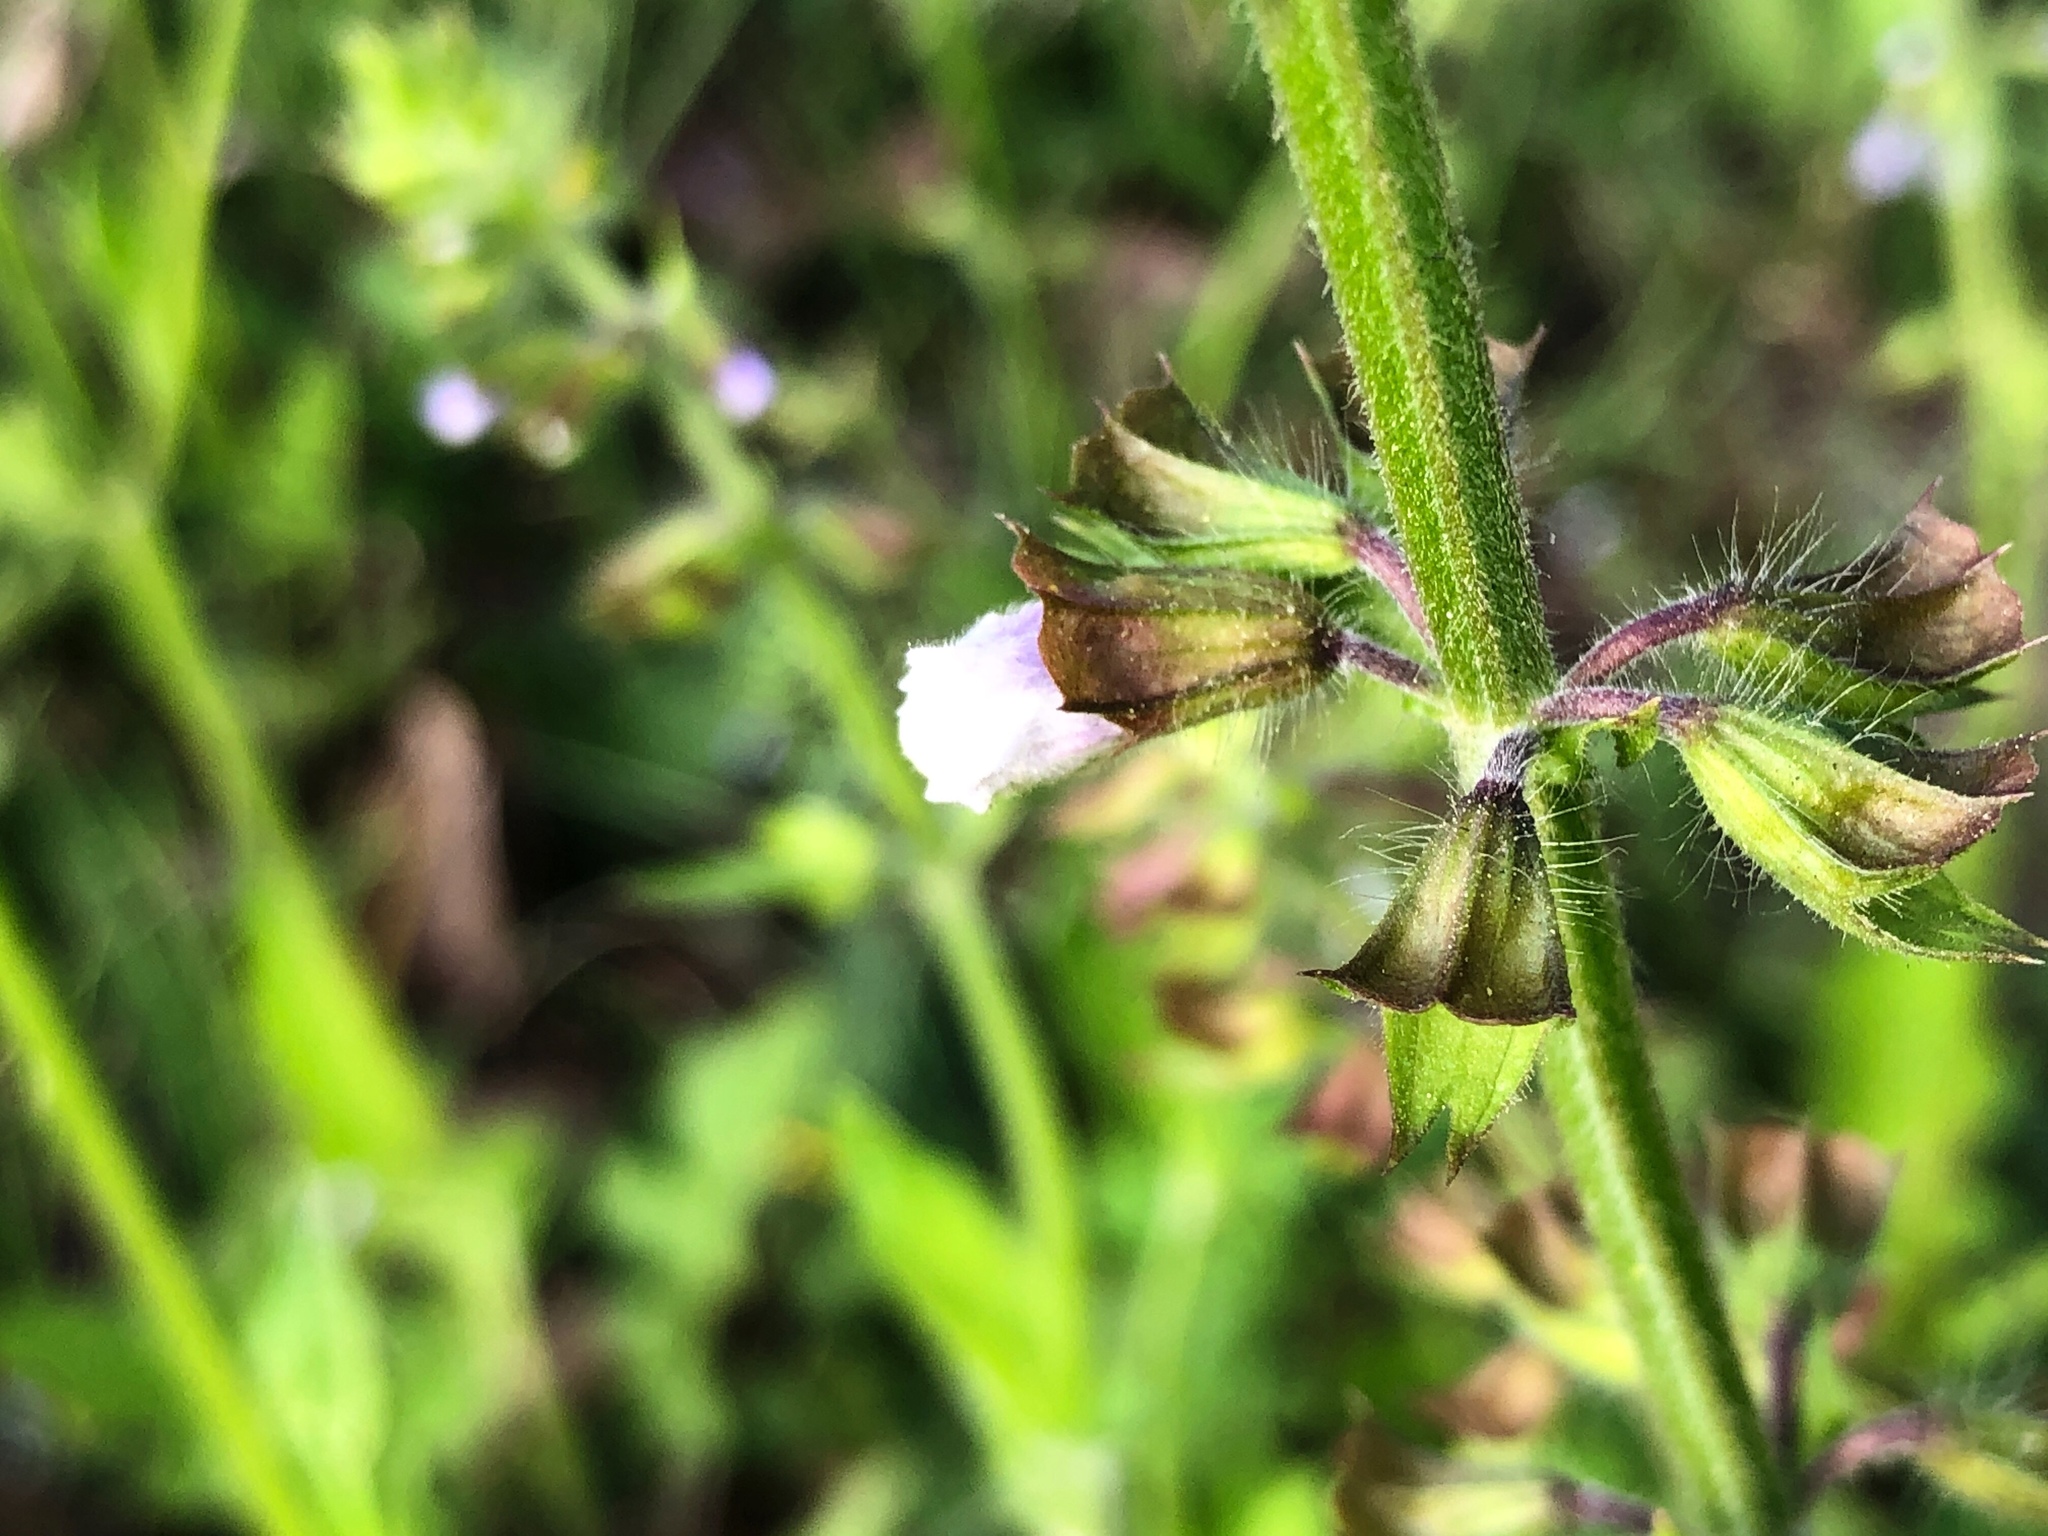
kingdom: Plantae
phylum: Tracheophyta
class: Magnoliopsida
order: Lamiales
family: Lamiaceae
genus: Salvia
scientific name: Salvia lyrata
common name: Cancerweed
